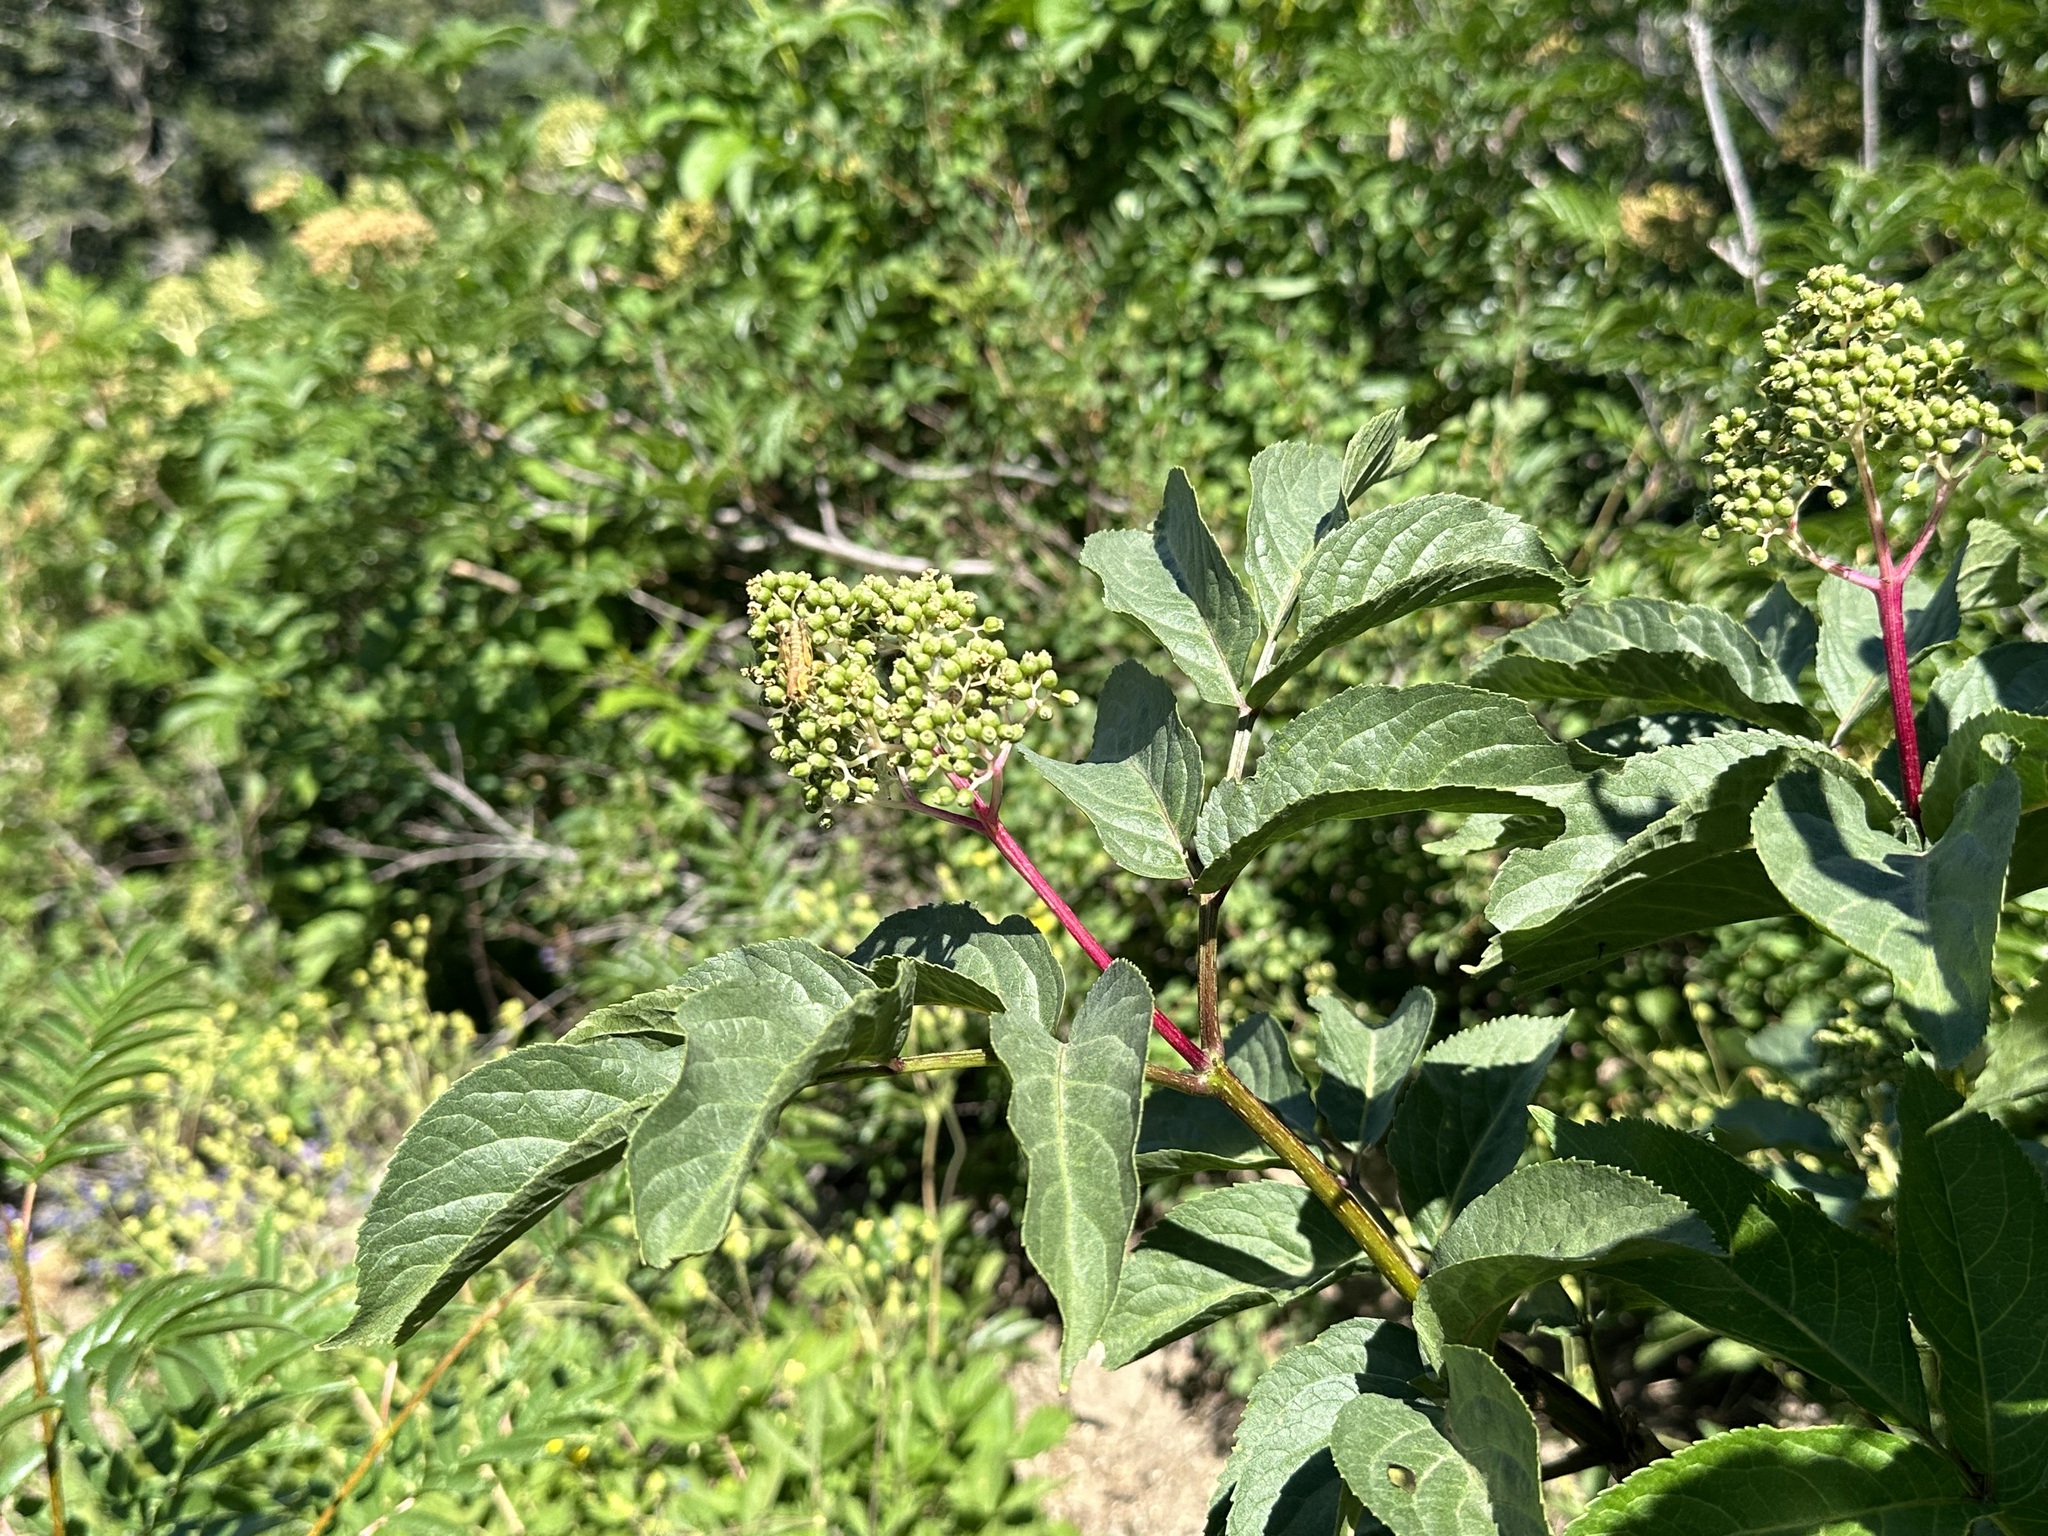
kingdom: Plantae
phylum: Tracheophyta
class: Magnoliopsida
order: Dipsacales
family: Viburnaceae
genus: Sambucus
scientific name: Sambucus racemosa
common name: Red-berried elder
